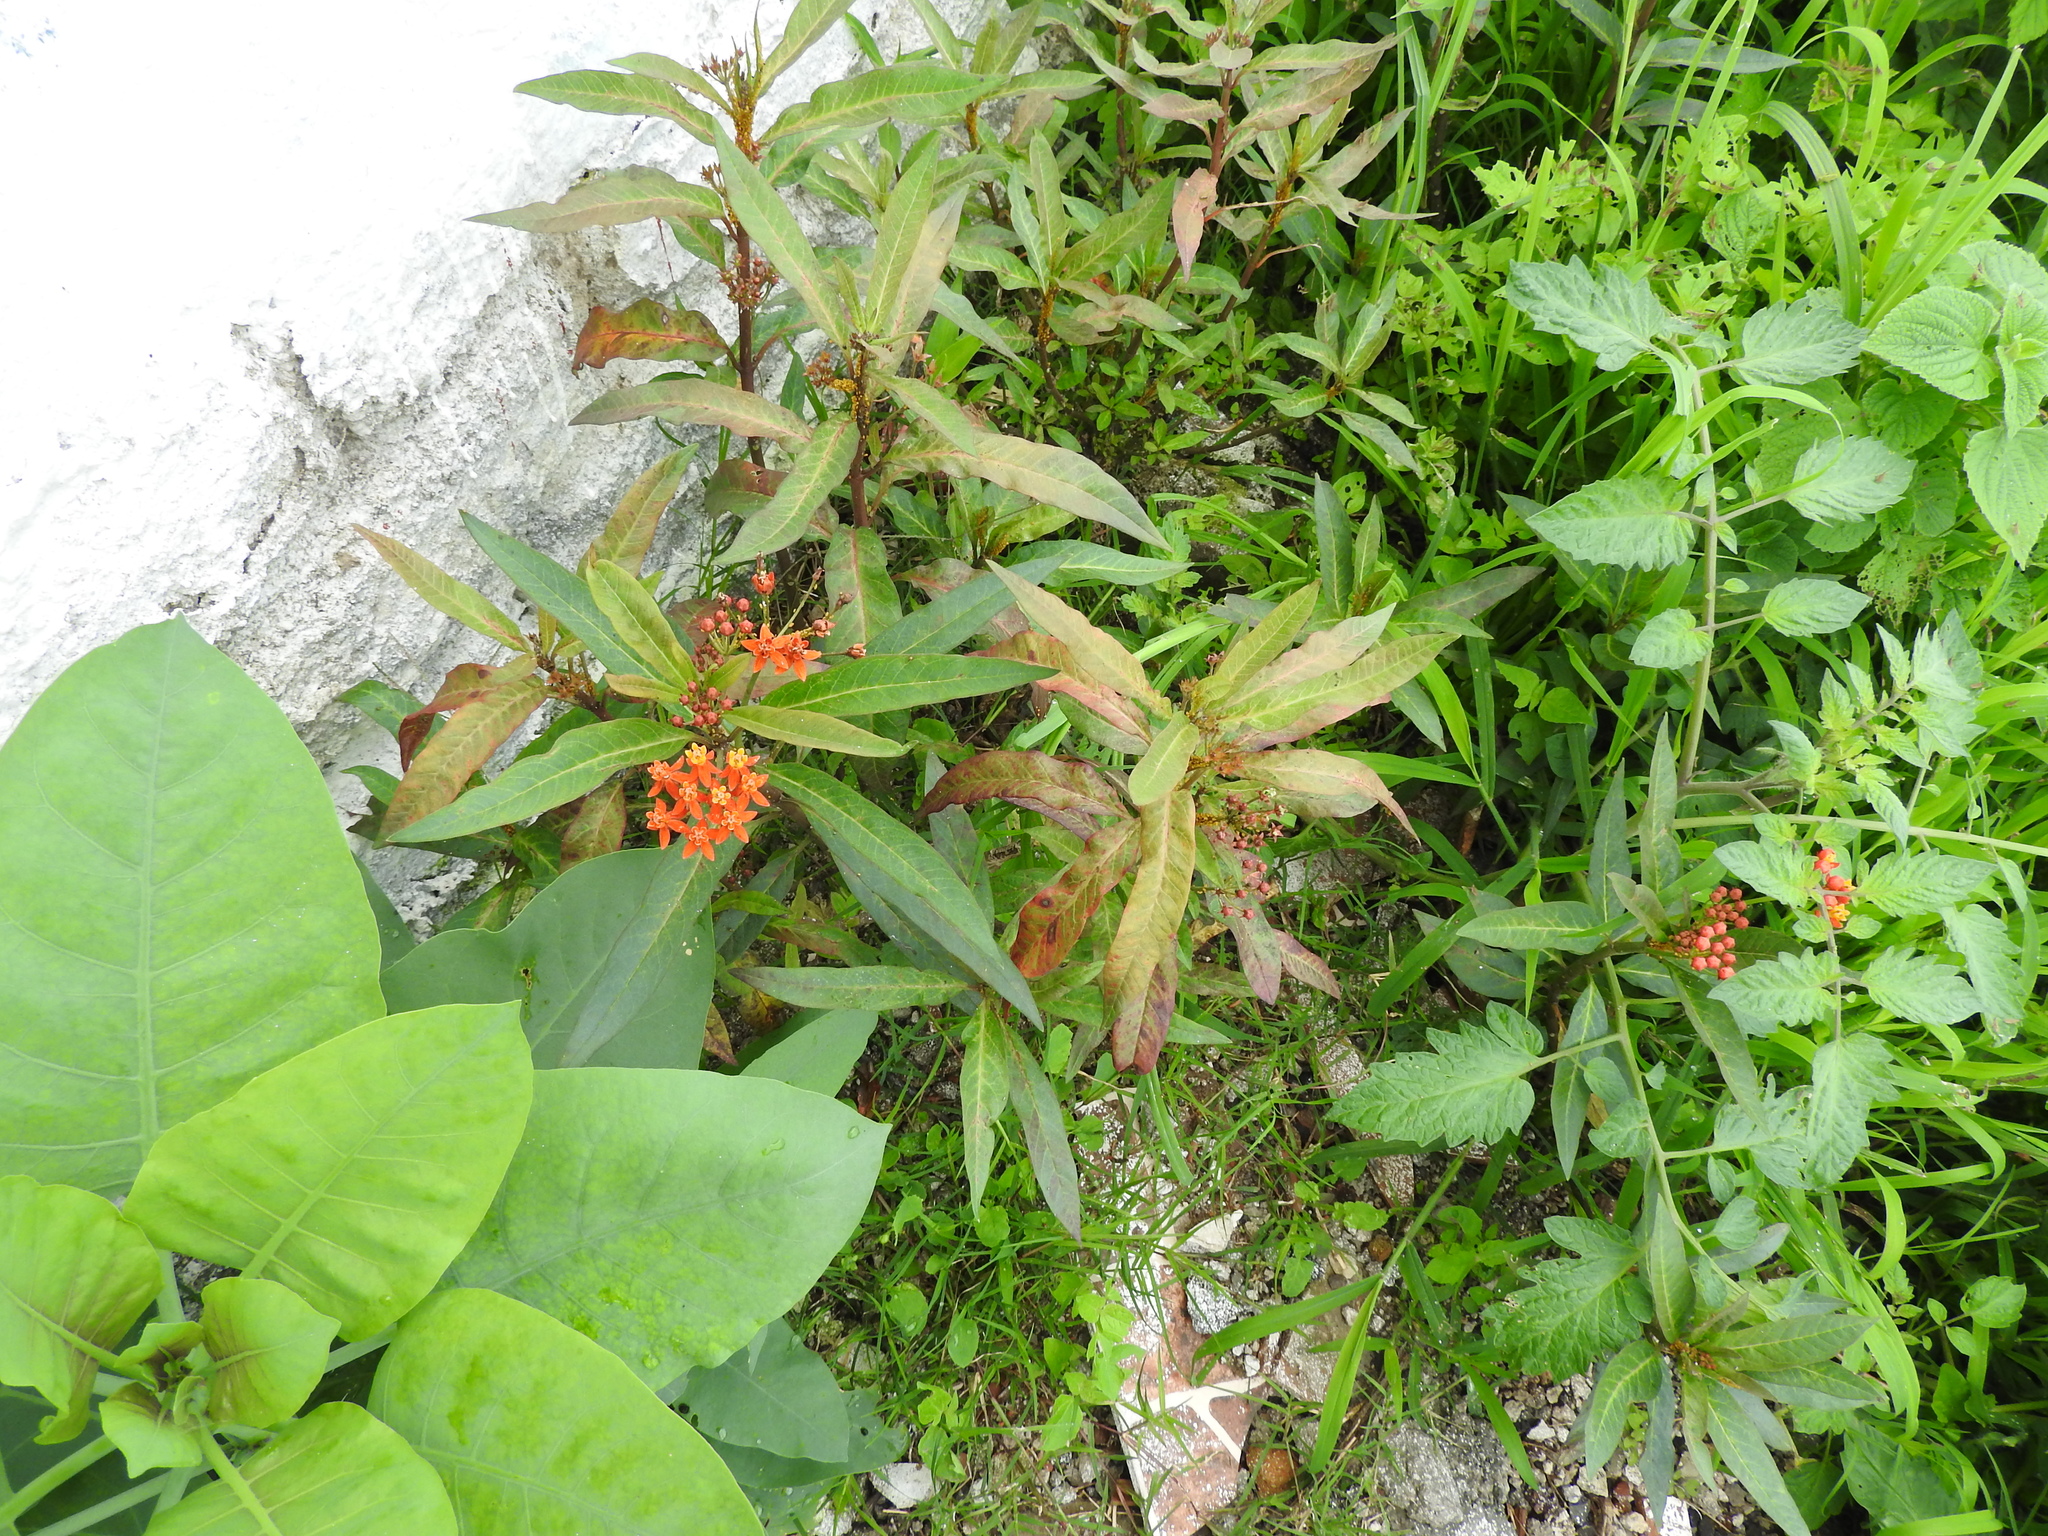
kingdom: Plantae
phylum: Tracheophyta
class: Magnoliopsida
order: Gentianales
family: Apocynaceae
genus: Asclepias
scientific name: Asclepias curassavica
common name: Bloodflower
